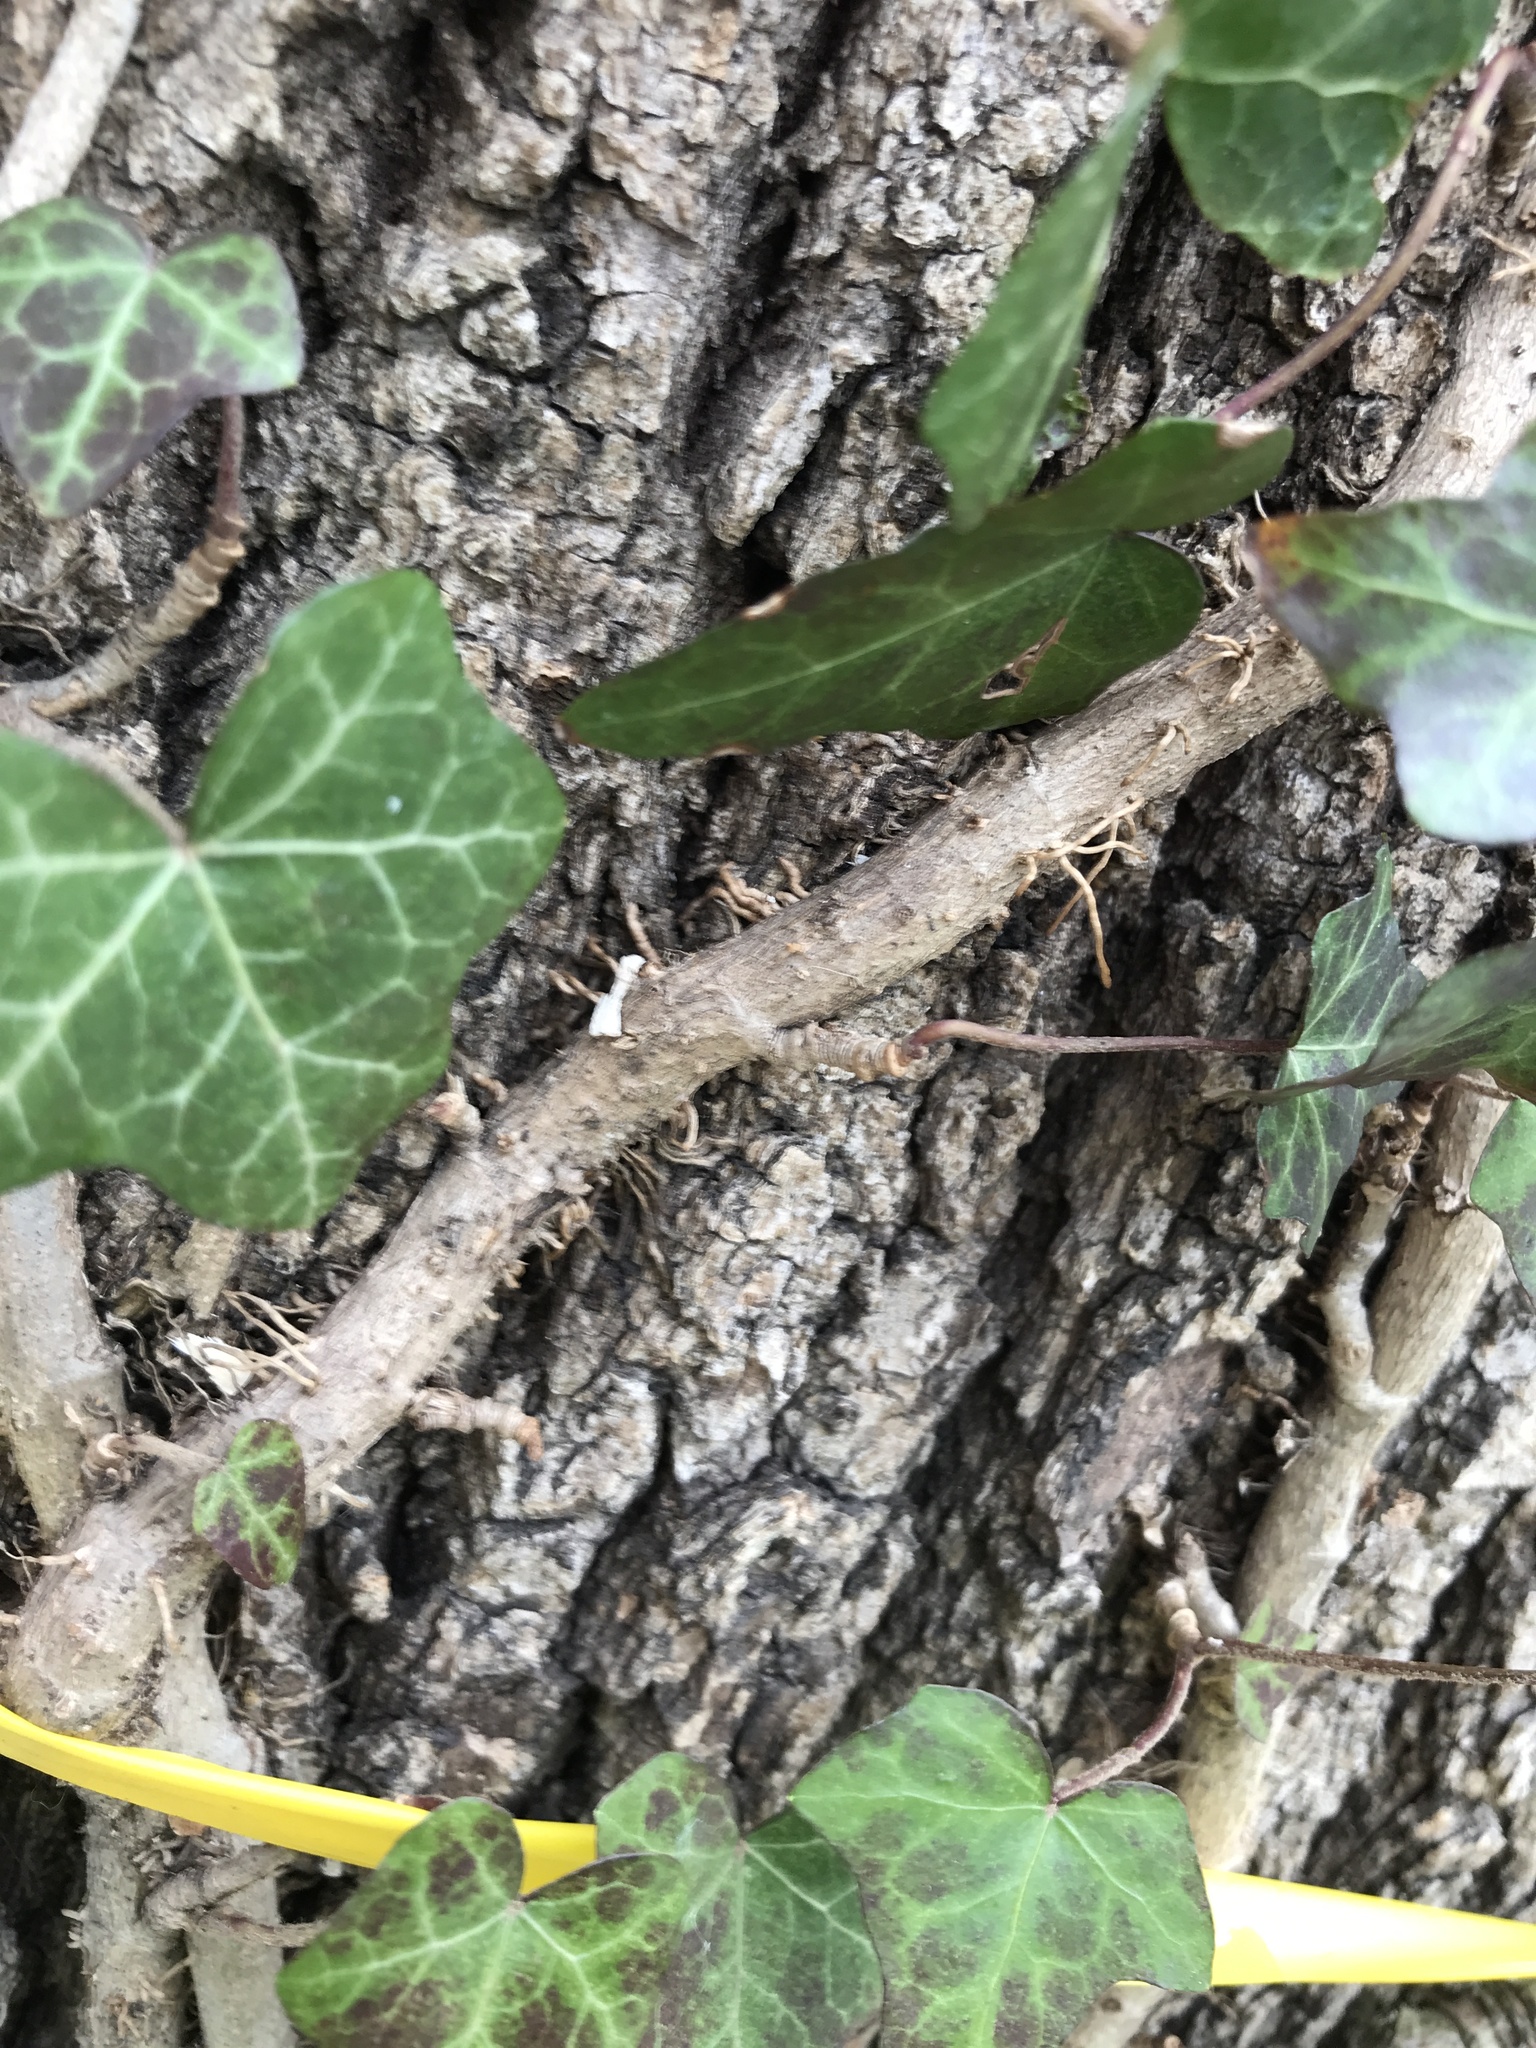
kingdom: Plantae
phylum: Tracheophyta
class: Magnoliopsida
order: Apiales
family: Araliaceae
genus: Hedera
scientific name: Hedera helix
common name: Ivy
